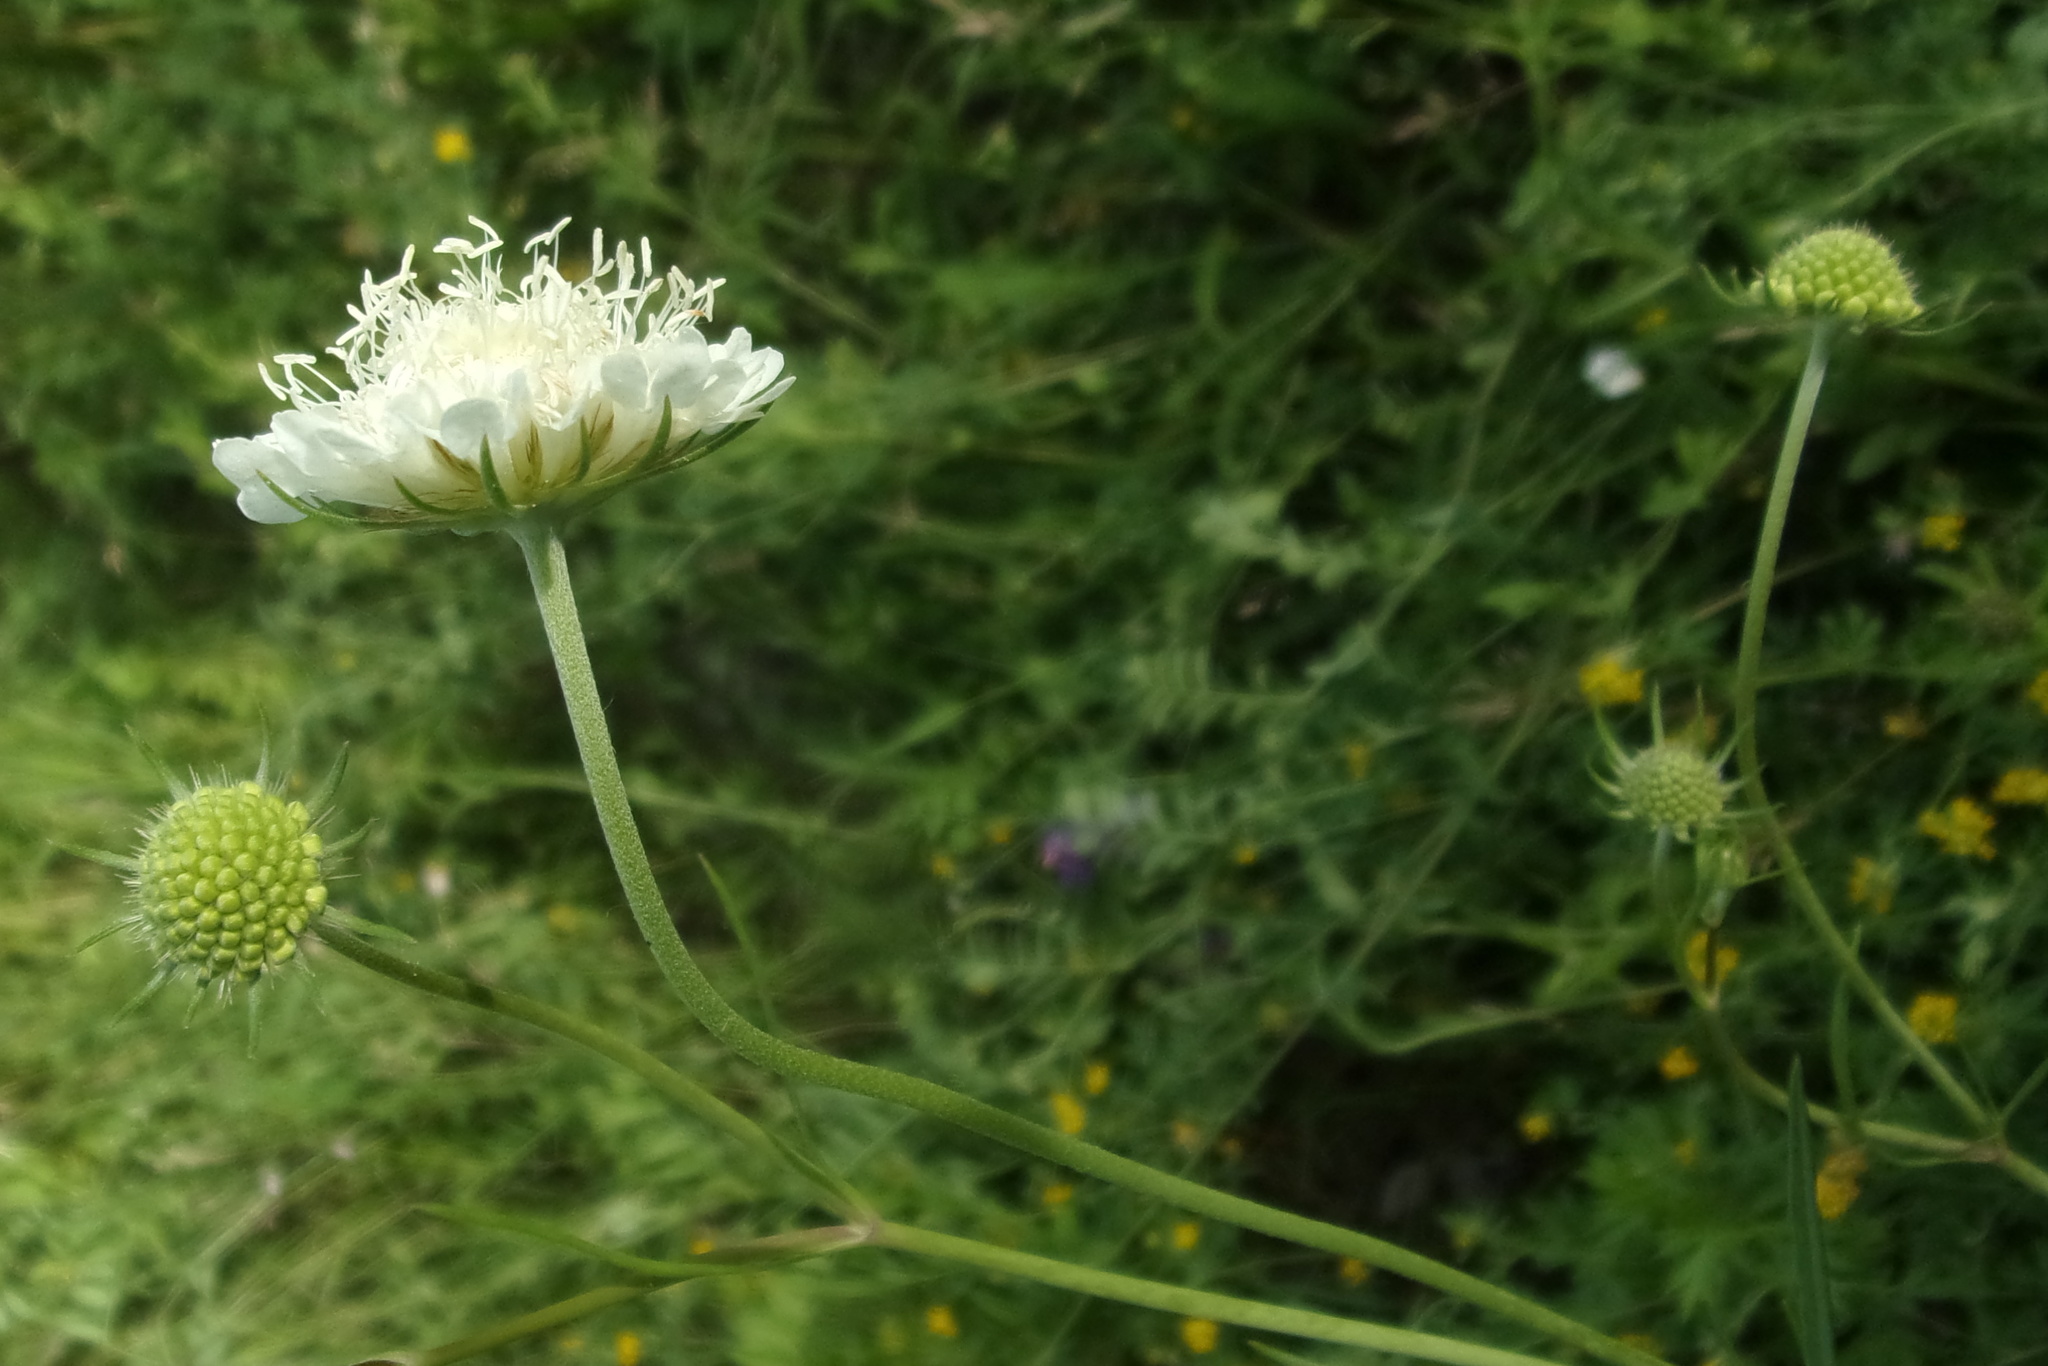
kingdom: Plantae
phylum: Tracheophyta
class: Magnoliopsida
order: Dipsacales
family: Caprifoliaceae
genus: Scabiosa
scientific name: Scabiosa ochroleuca
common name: Cream pincushions
